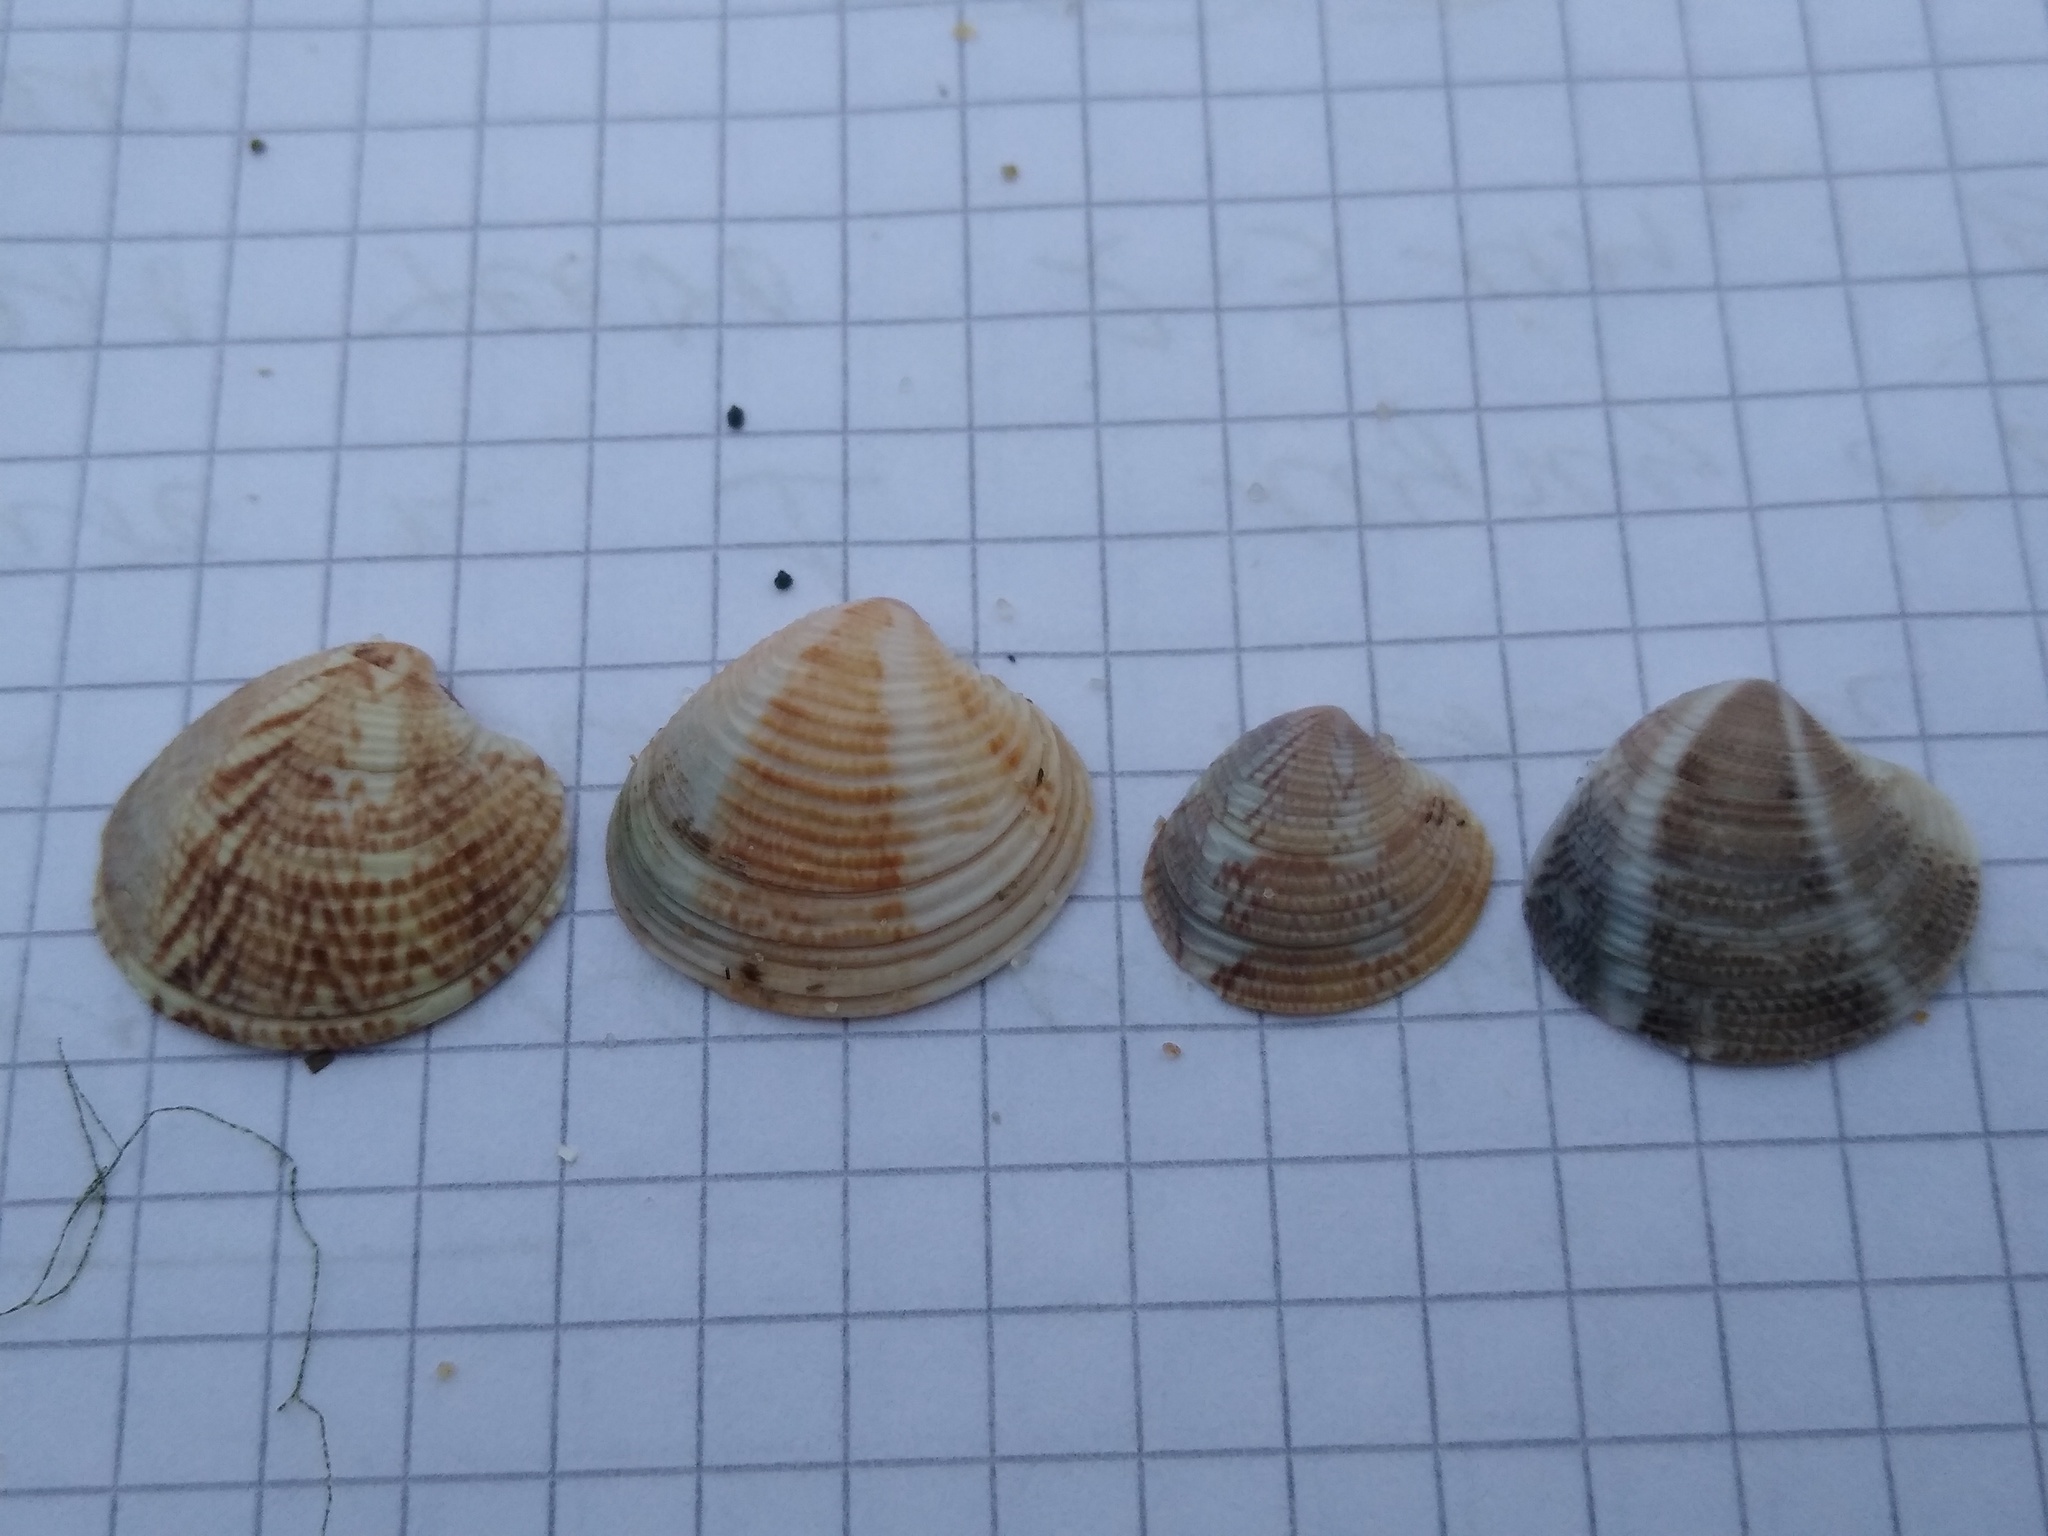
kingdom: Animalia
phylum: Mollusca
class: Bivalvia
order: Venerida
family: Veneridae
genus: Chamelea
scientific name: Chamelea gallina
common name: Chicken venus
